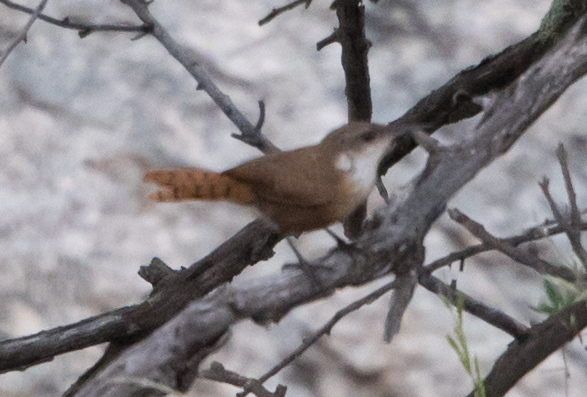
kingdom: Animalia
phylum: Chordata
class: Aves
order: Passeriformes
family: Troglodytidae
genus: Catherpes
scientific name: Catherpes mexicanus
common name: Canyon wren
